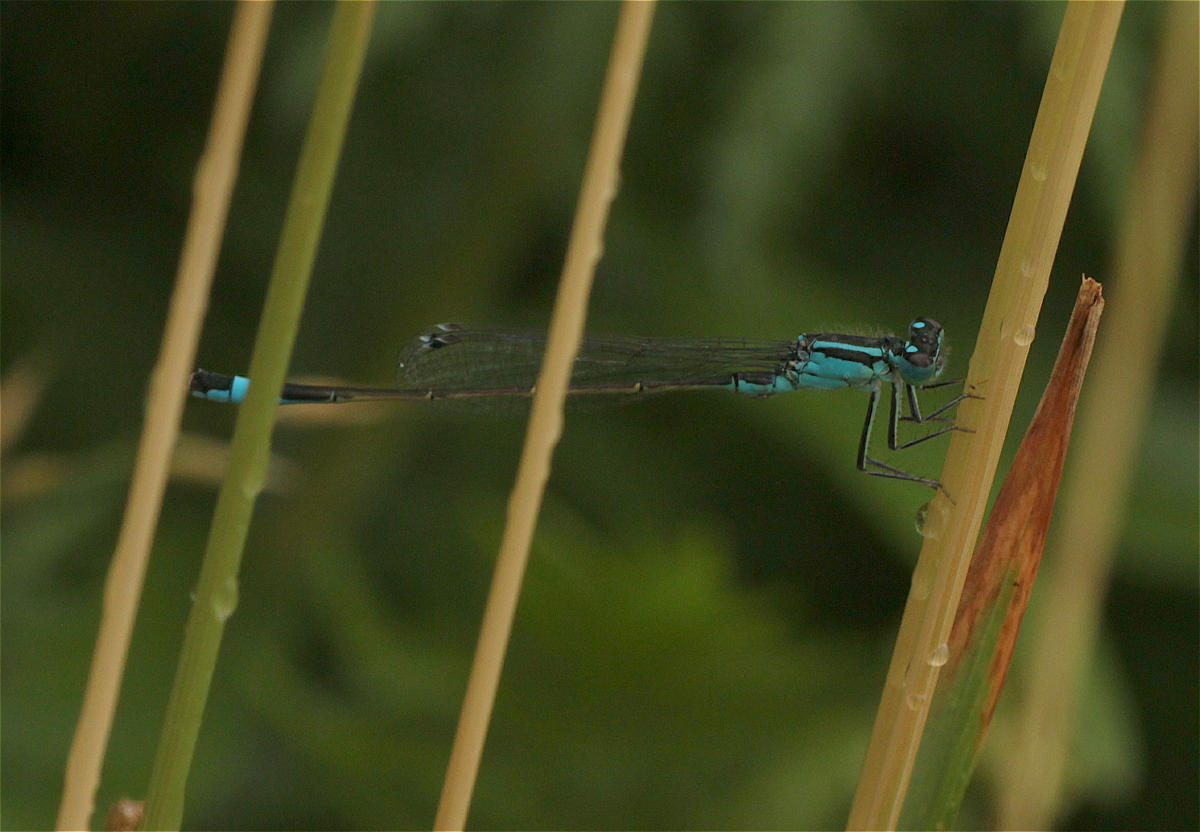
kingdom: Animalia
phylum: Arthropoda
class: Insecta
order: Odonata
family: Coenagrionidae
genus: Ischnura
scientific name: Ischnura elegans
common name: Blue-tailed damselfly
